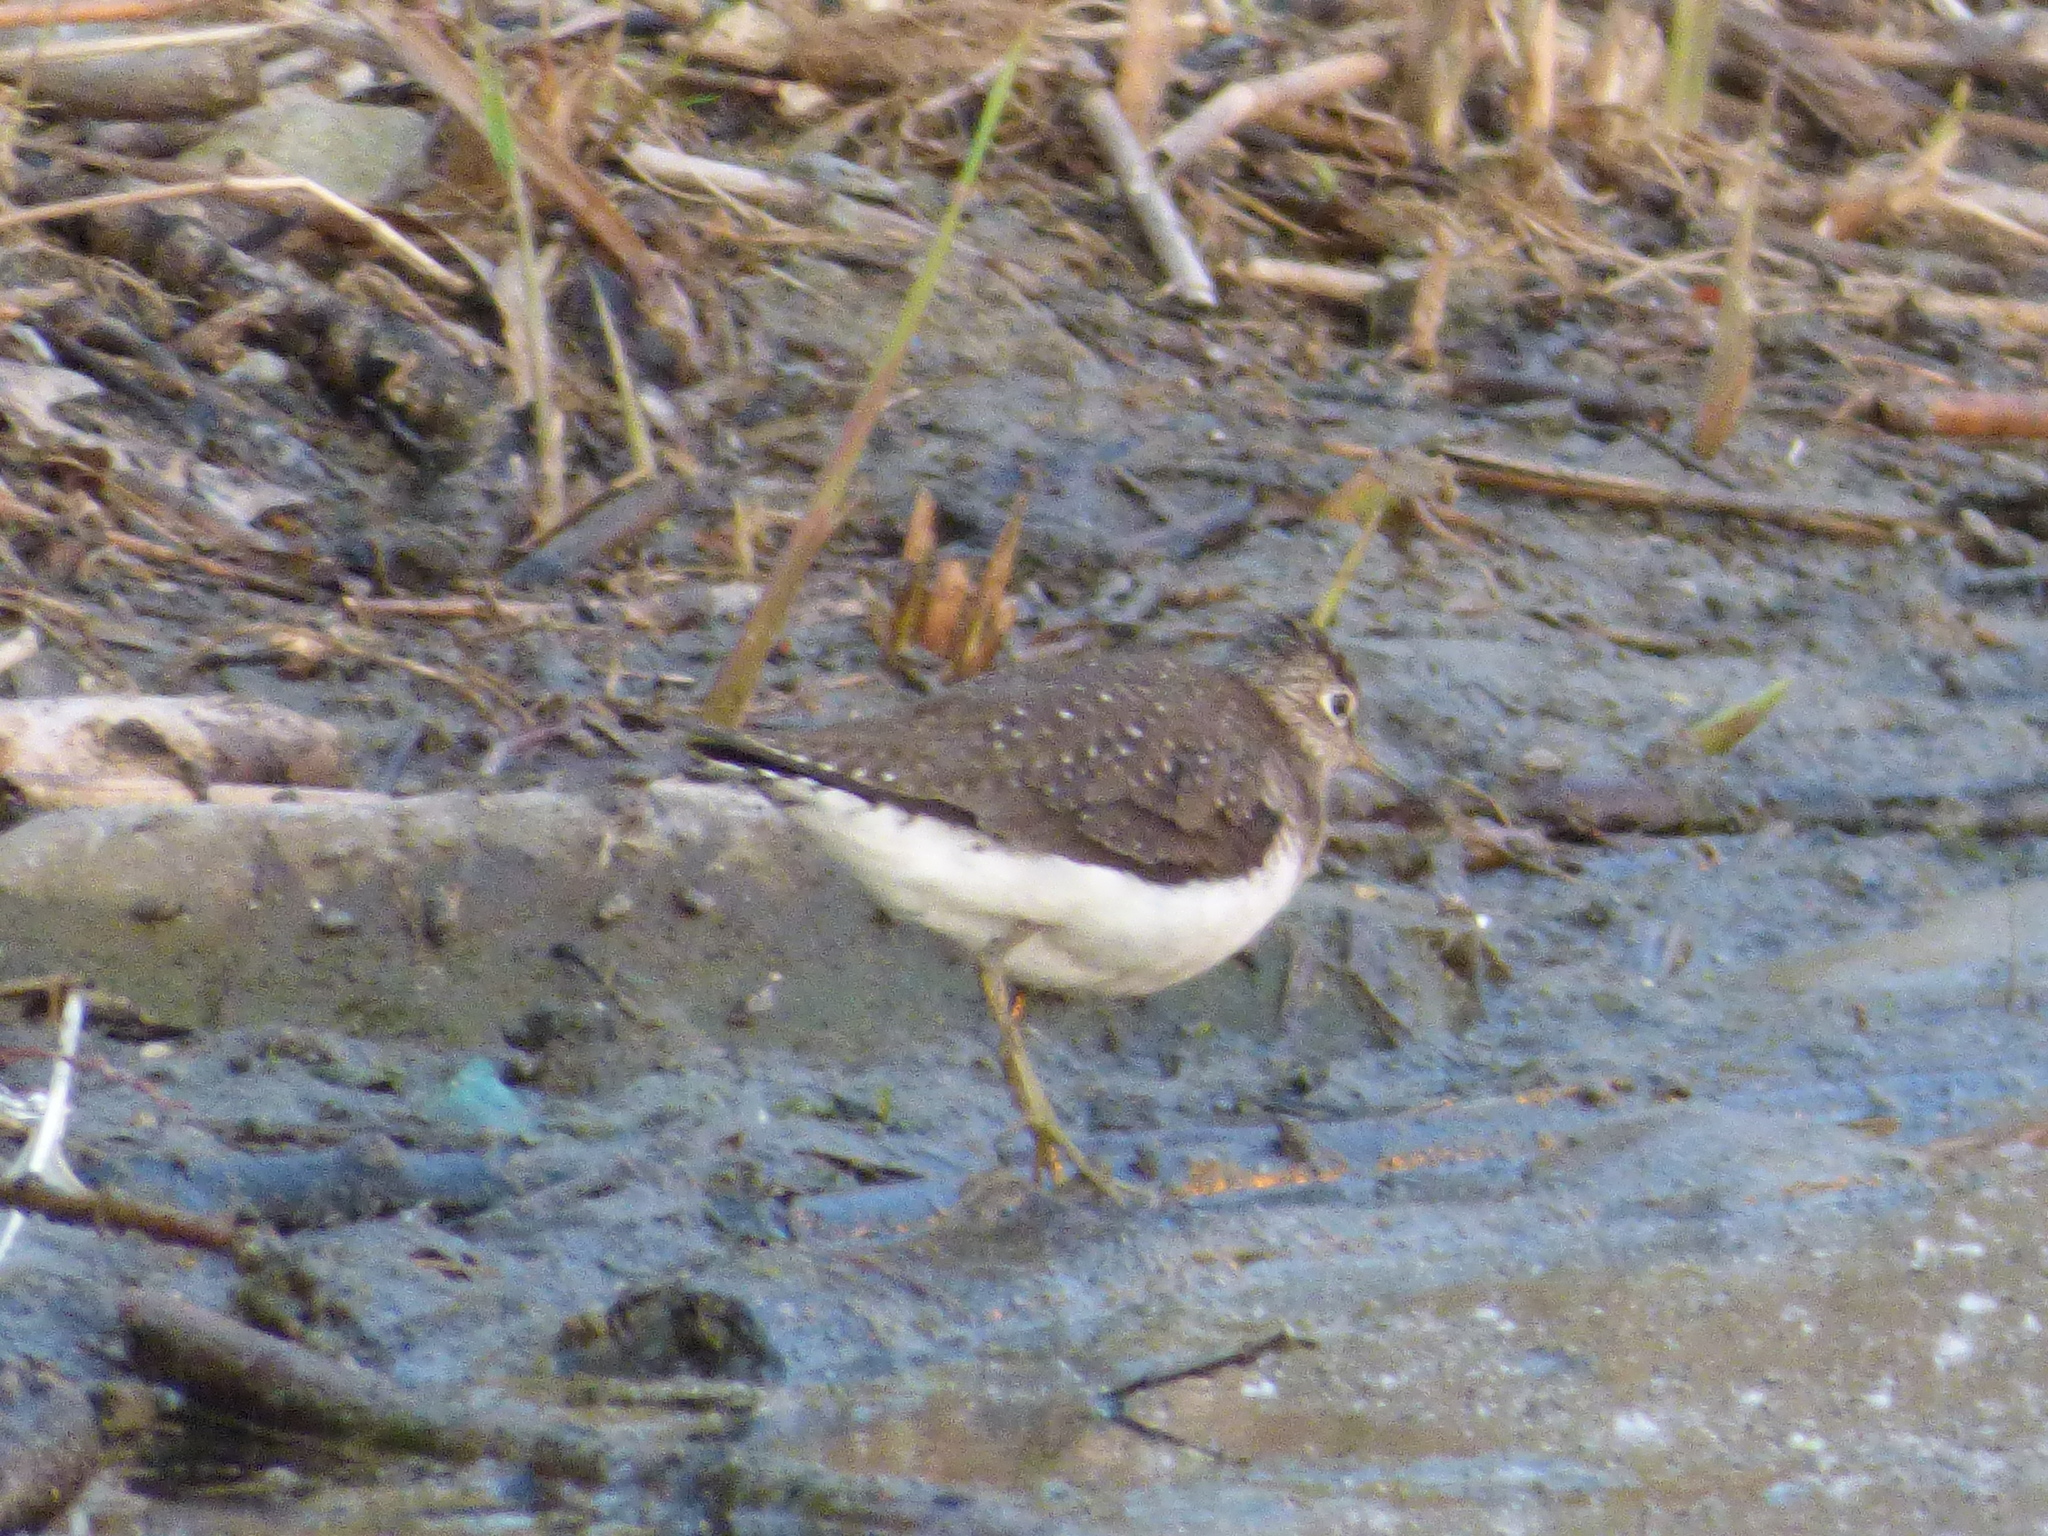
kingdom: Animalia
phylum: Chordata
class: Aves
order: Charadriiformes
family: Scolopacidae
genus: Tringa
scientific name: Tringa solitaria
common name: Solitary sandpiper
